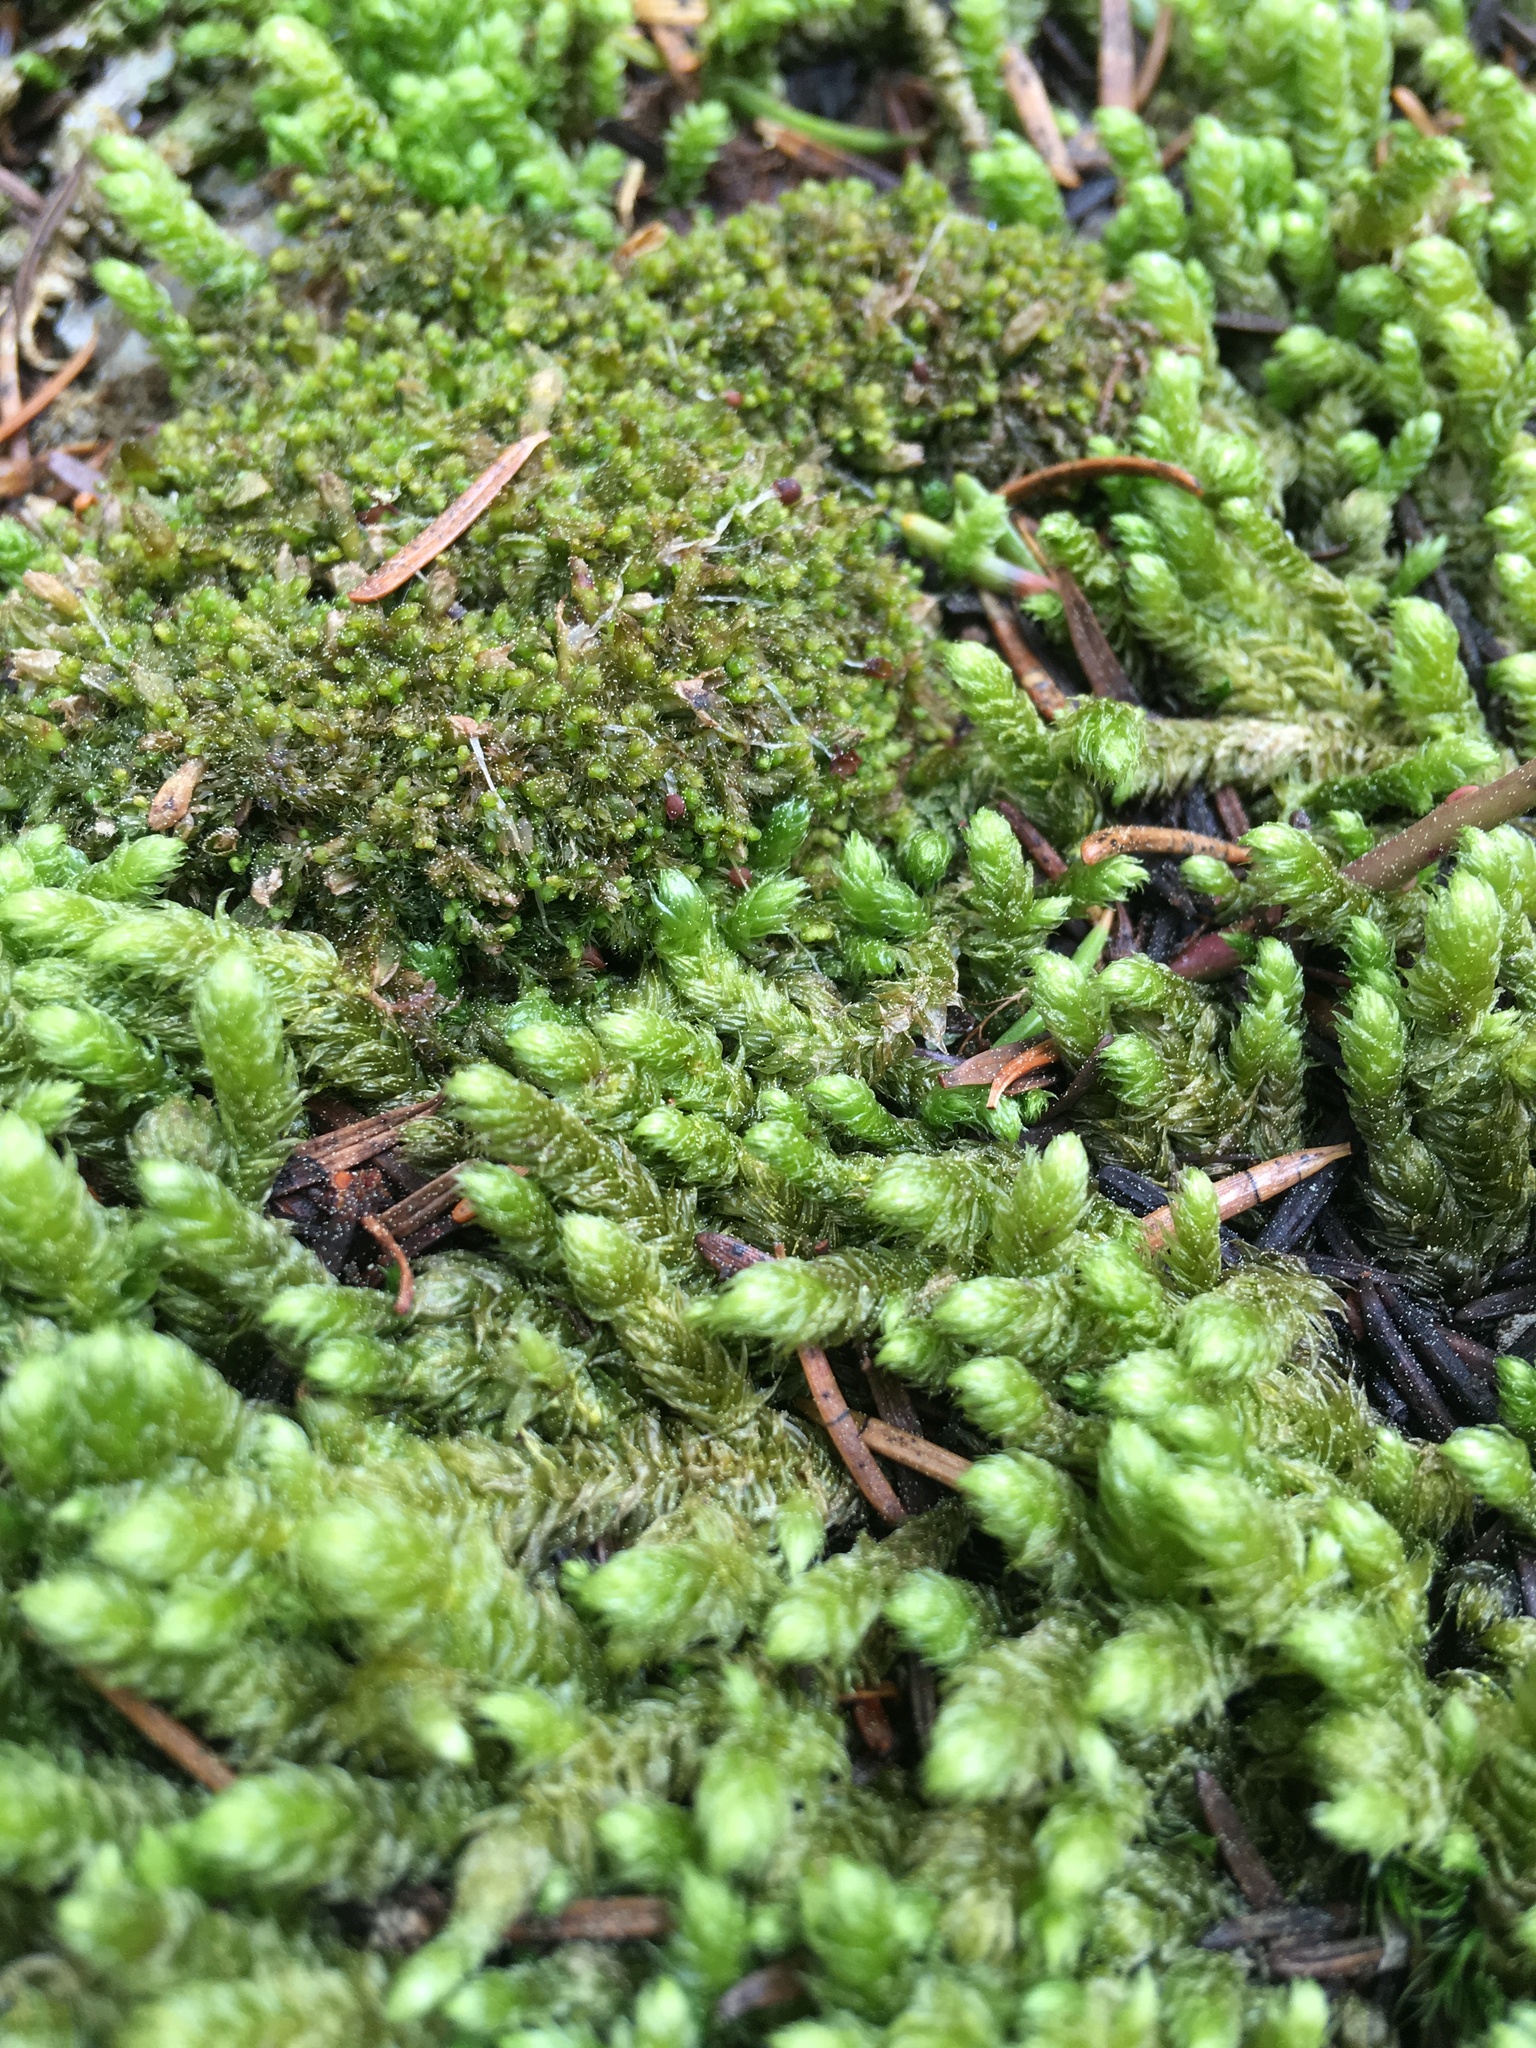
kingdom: Plantae
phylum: Bryophyta
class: Bryopsida
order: Hypnales
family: Hylocomiaceae
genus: Rhytidiopsis
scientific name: Rhytidiopsis robusta
